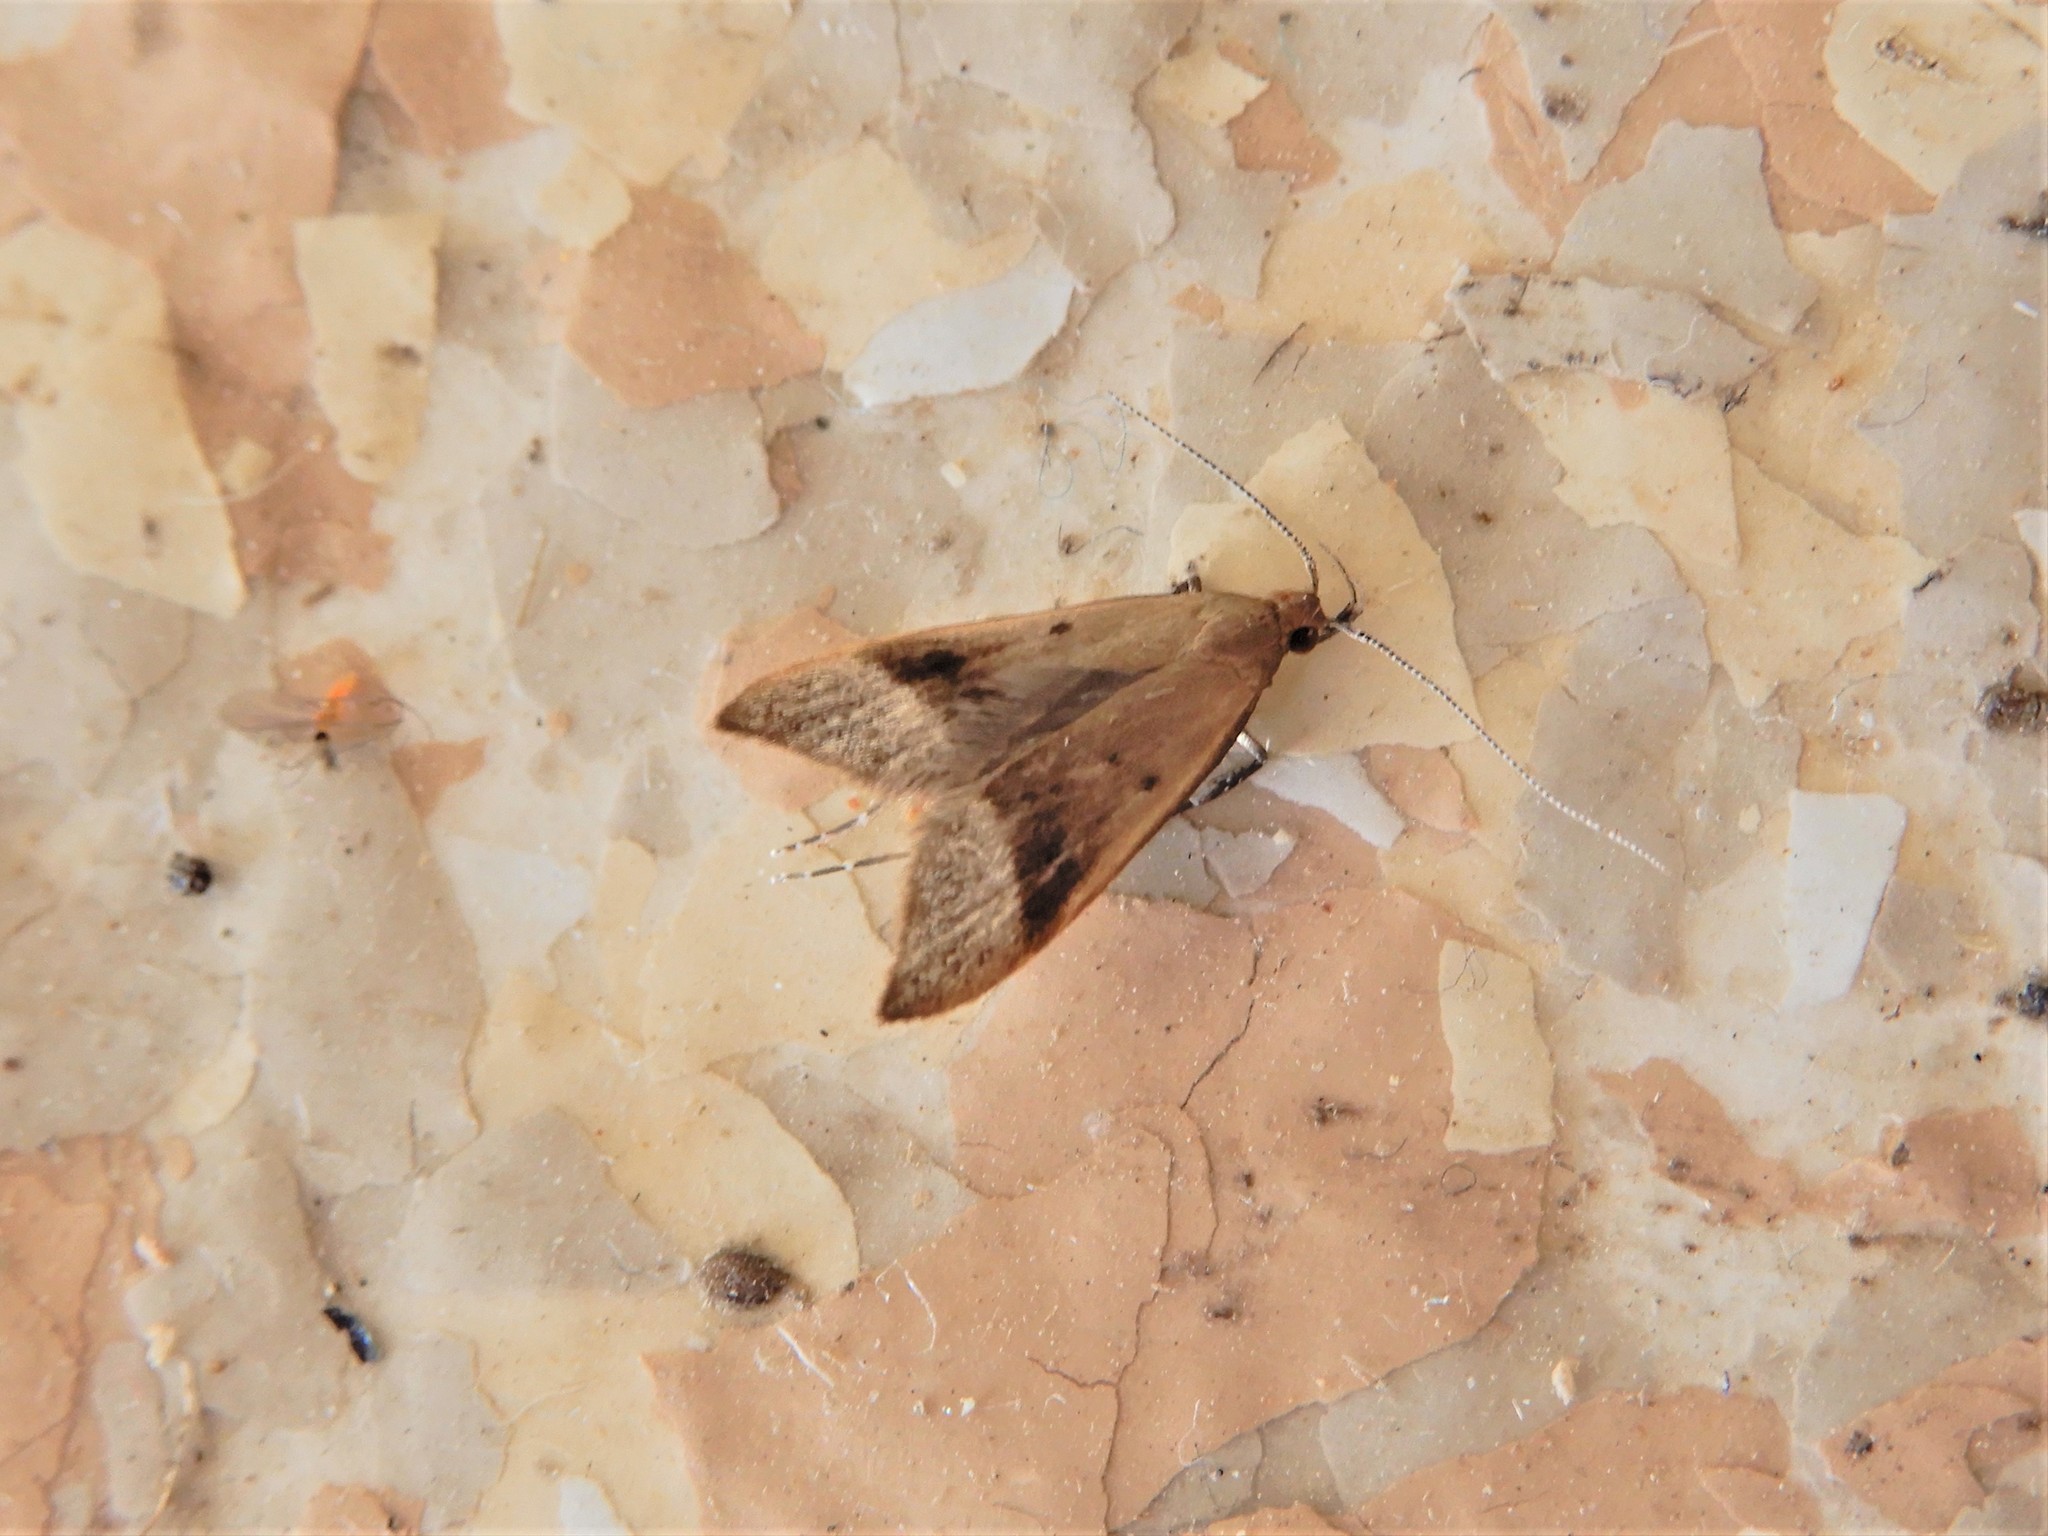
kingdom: Animalia
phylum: Arthropoda
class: Insecta
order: Lepidoptera
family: Oecophoridae
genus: Gymnobathra
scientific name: Gymnobathra hyetodes
